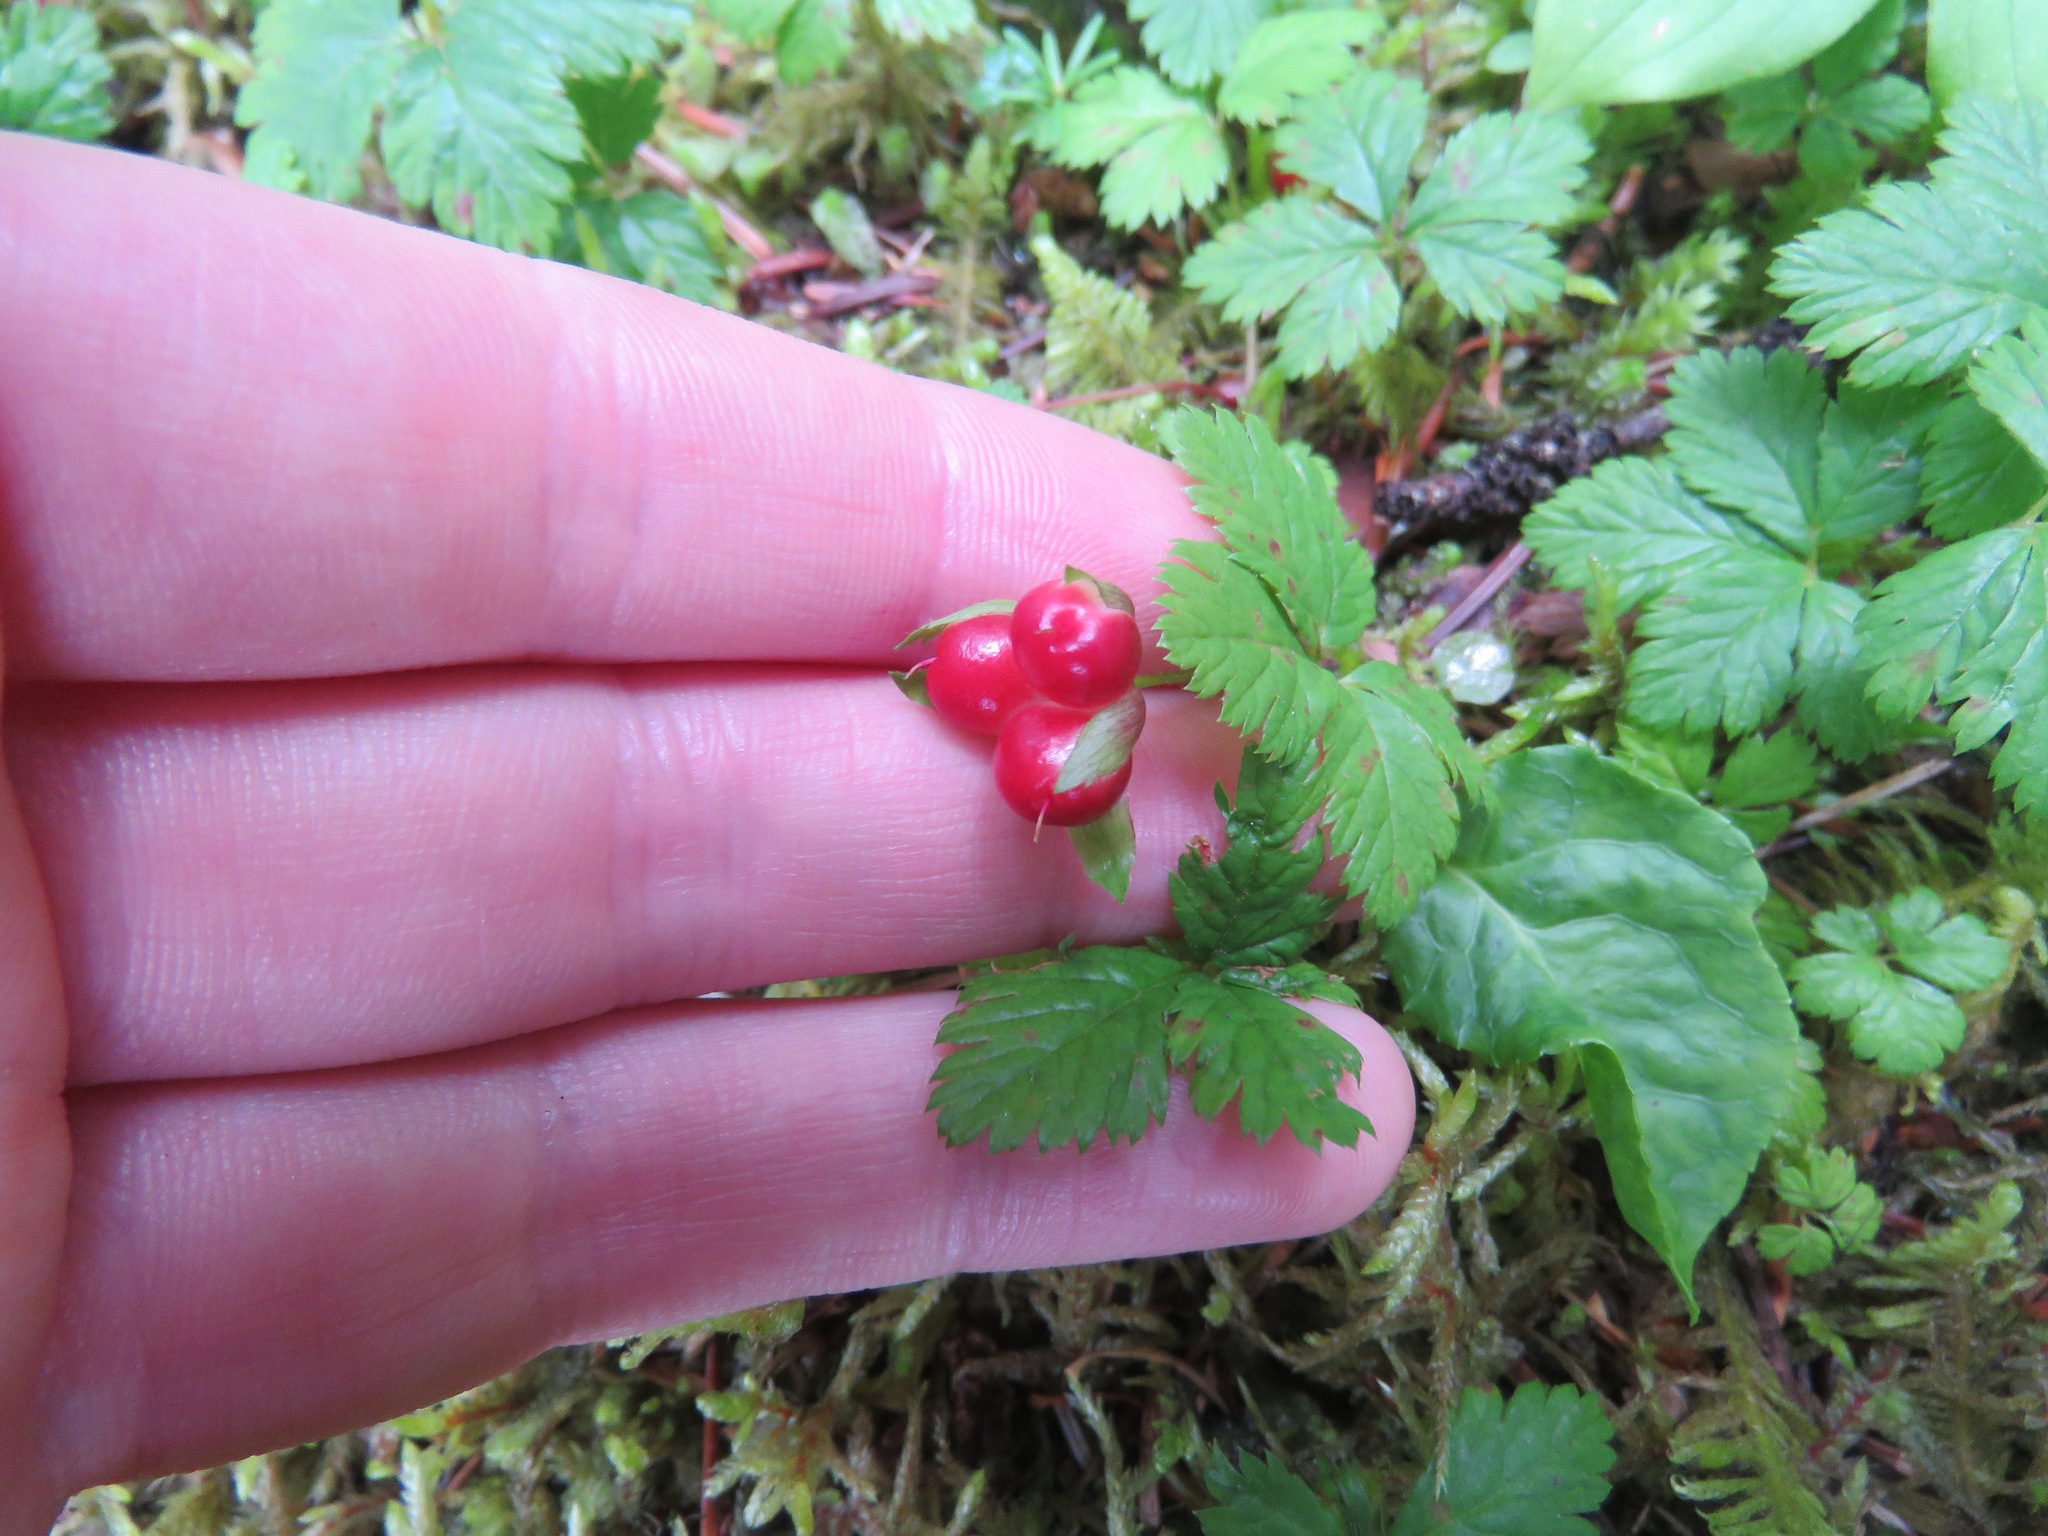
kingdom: Plantae
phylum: Tracheophyta
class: Magnoliopsida
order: Rosales
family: Rosaceae
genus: Rubus
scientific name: Rubus pedatus
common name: Creeping raspberry
